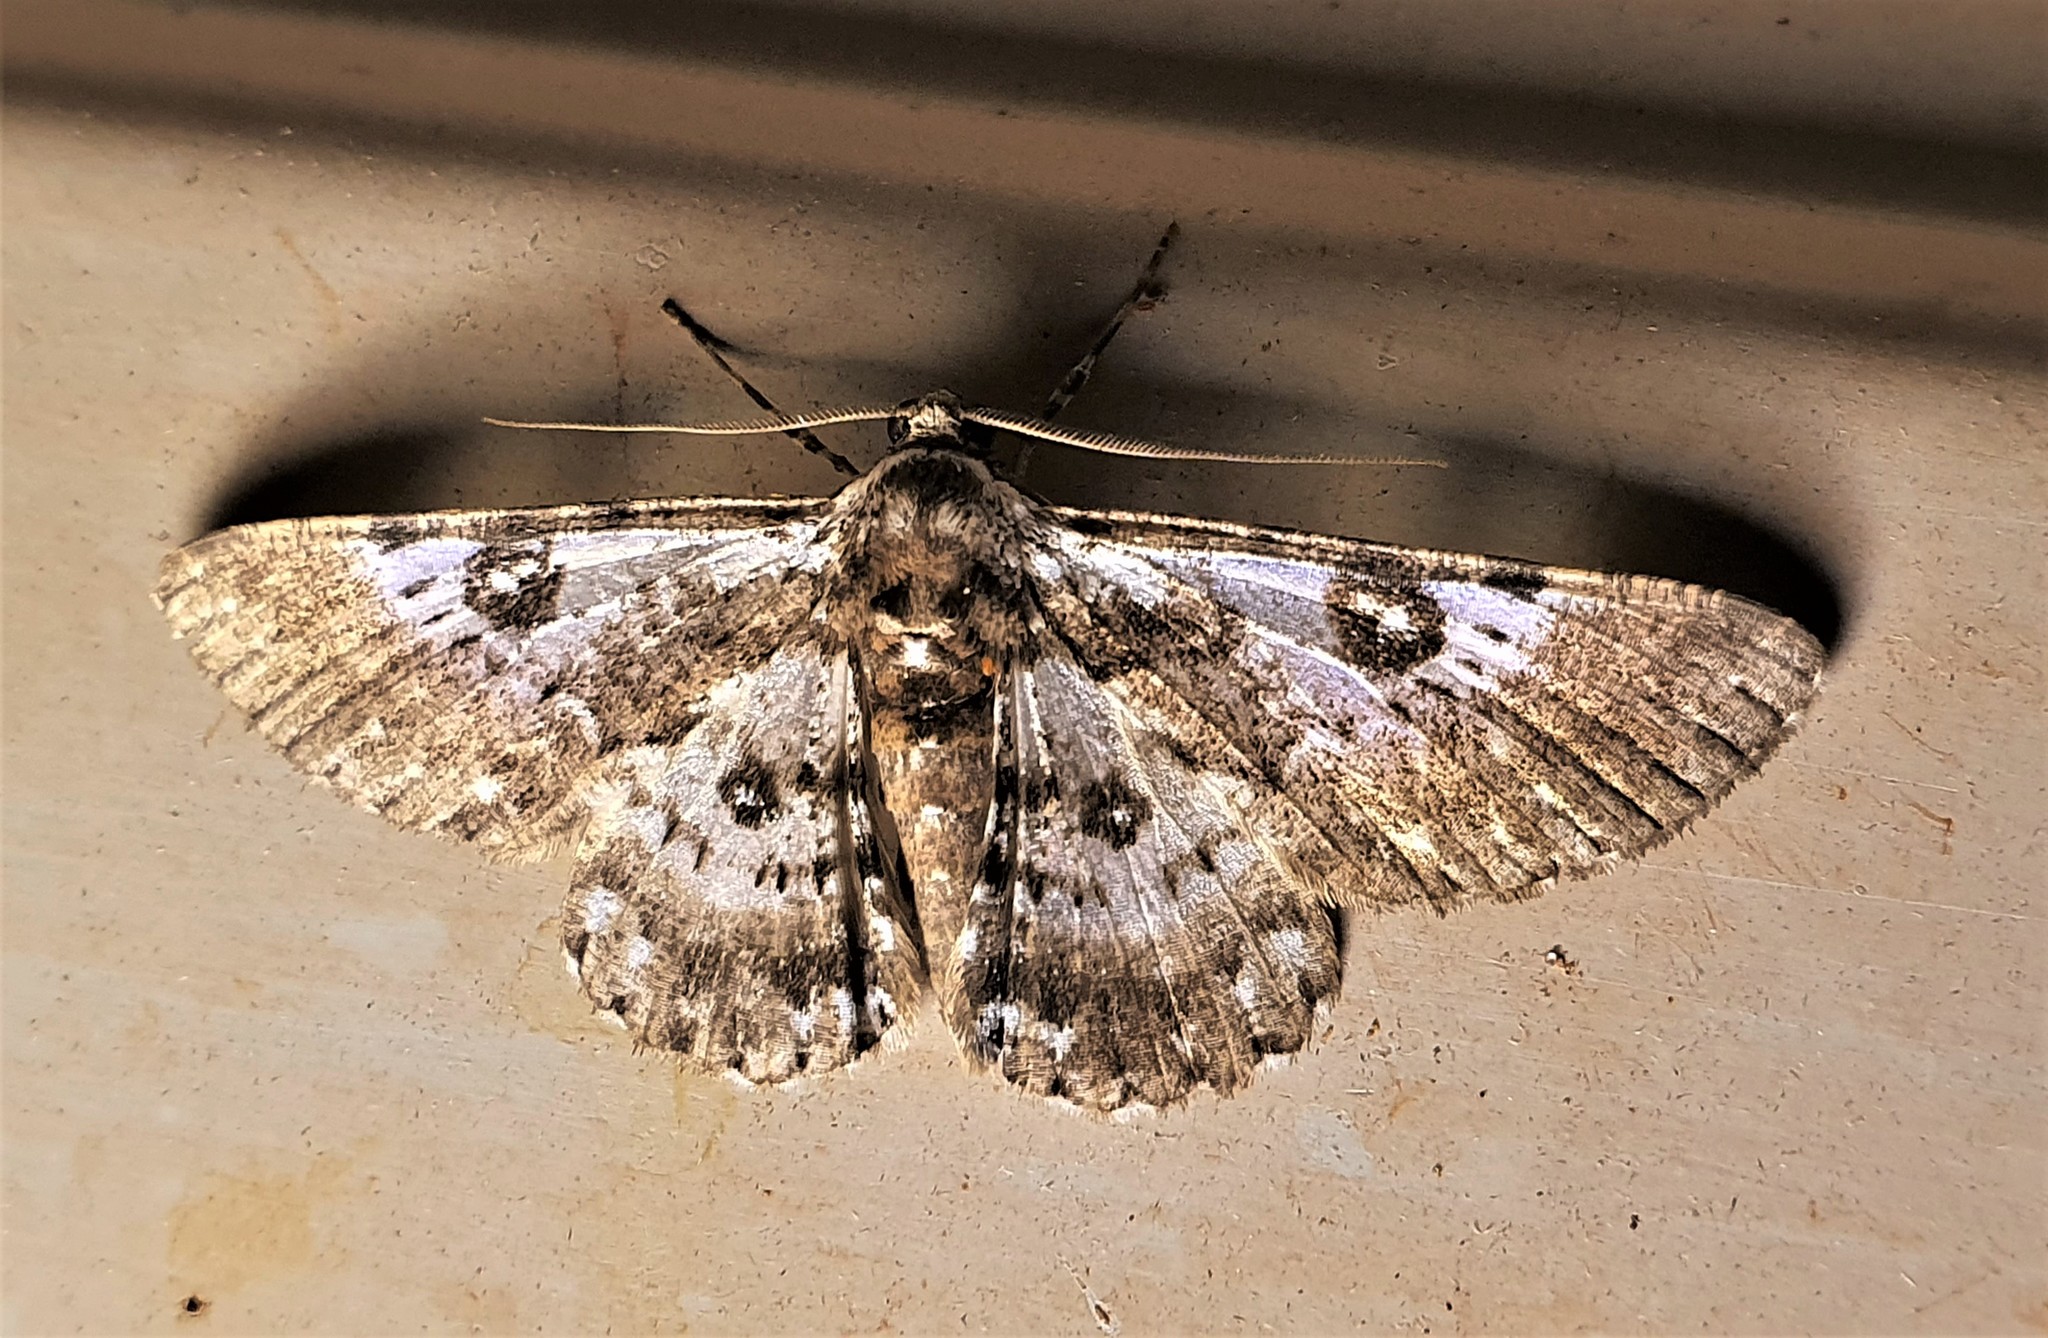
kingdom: Animalia
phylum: Arthropoda
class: Insecta
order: Lepidoptera
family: Geometridae
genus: Iridopsis
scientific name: Iridopsis validaria
